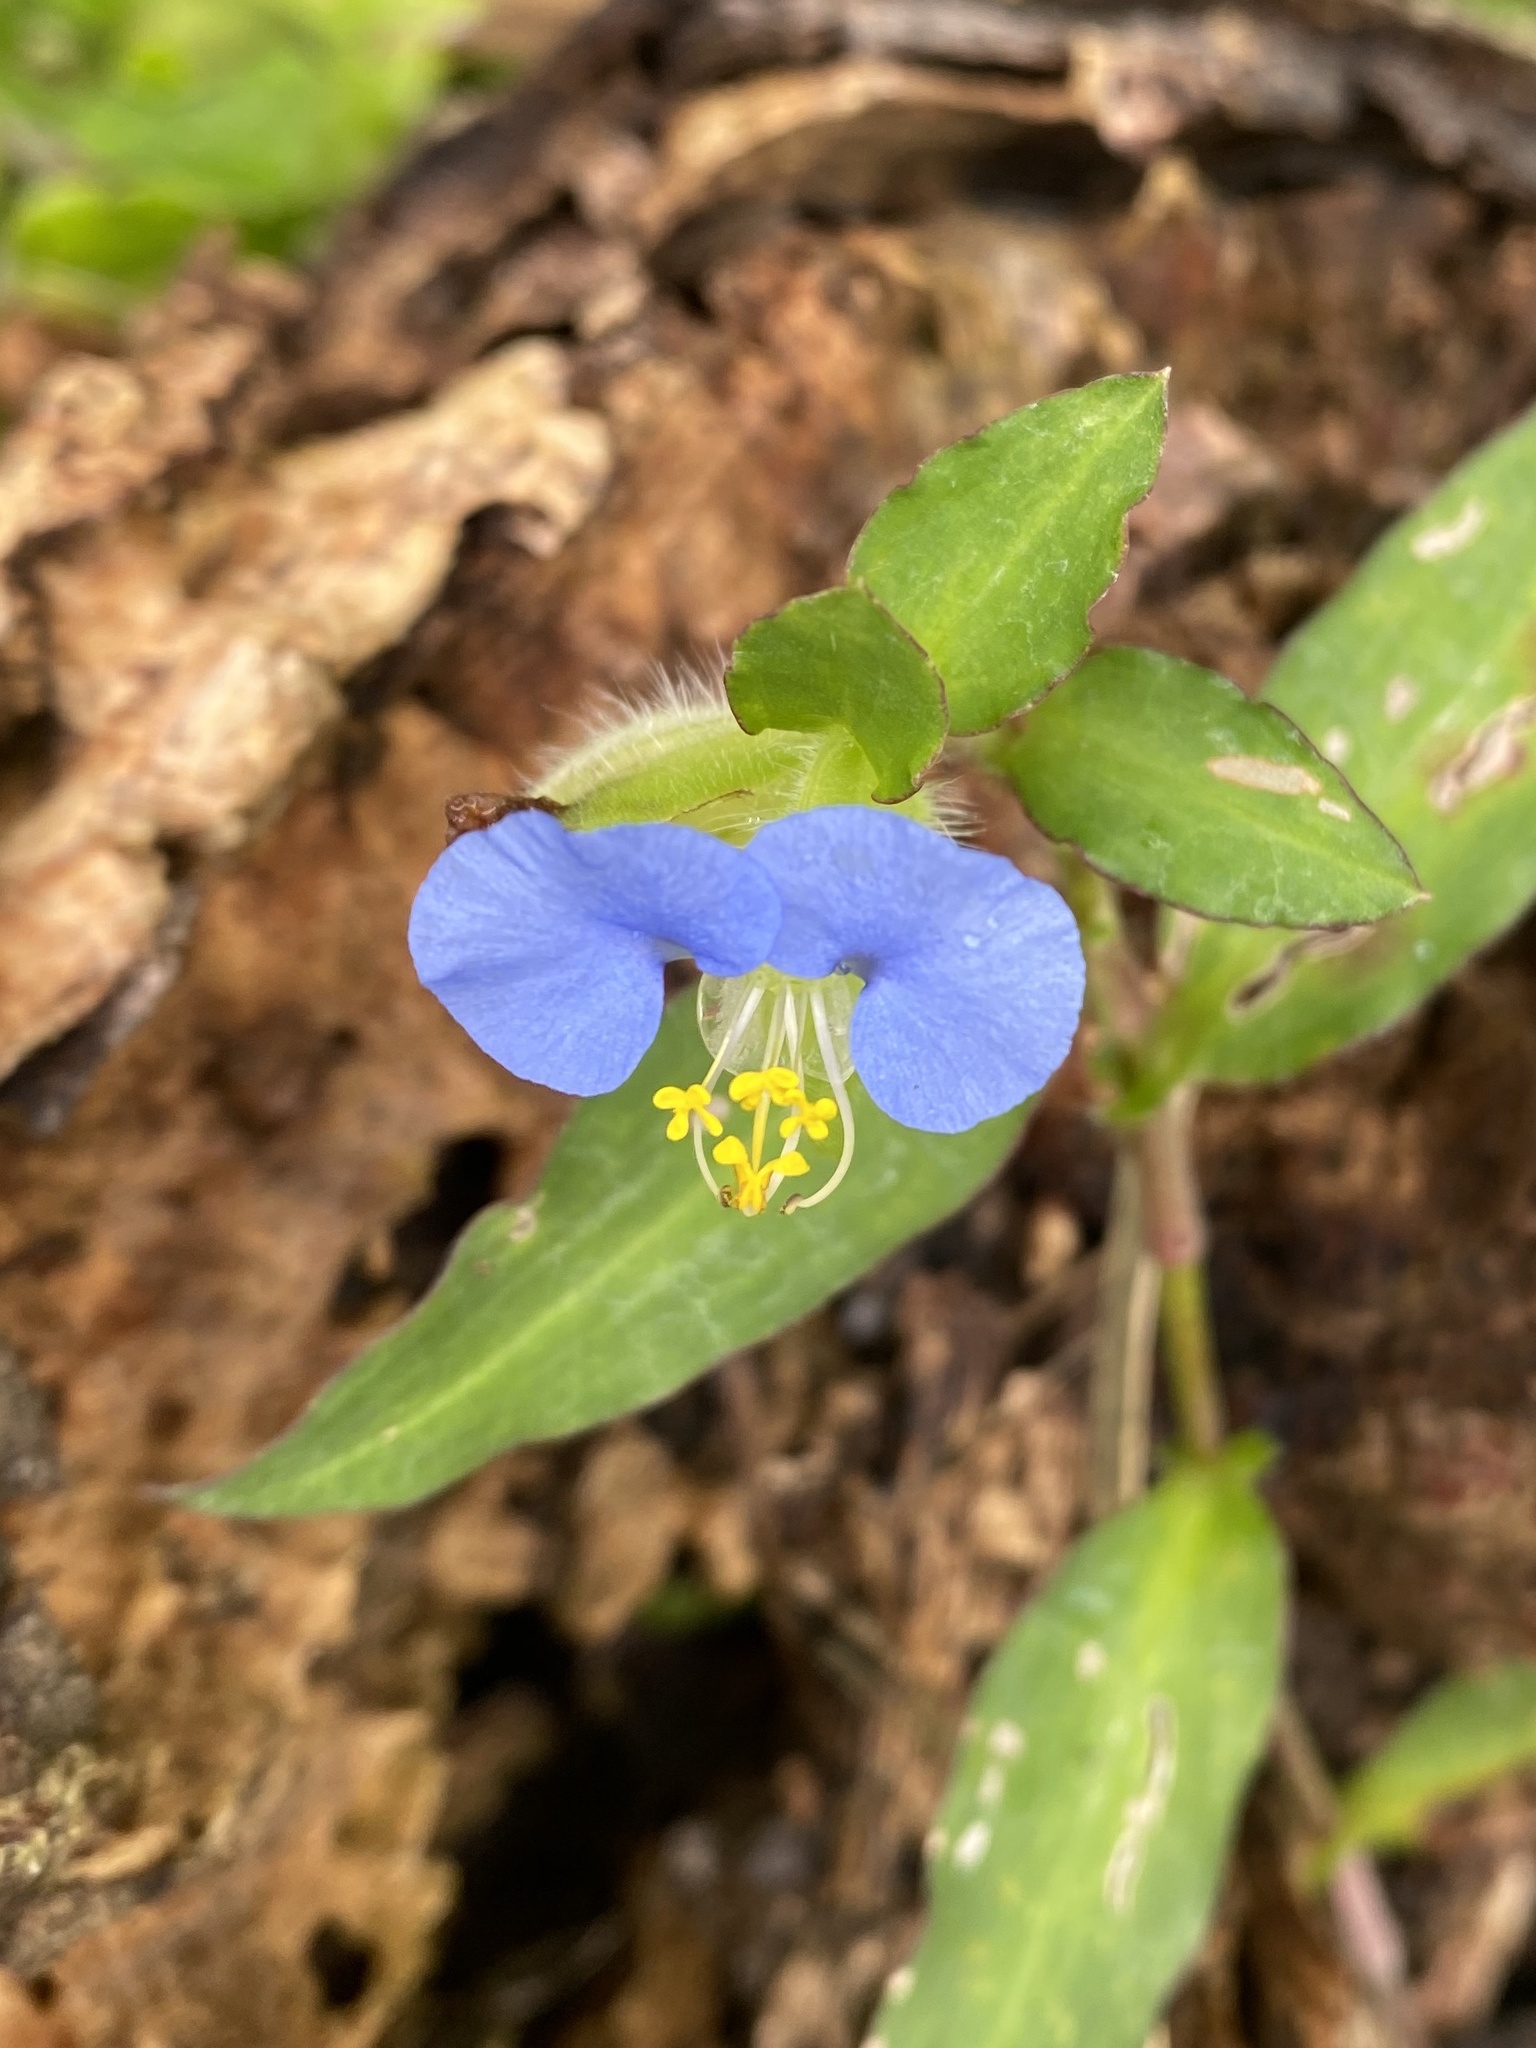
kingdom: Plantae
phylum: Tracheophyta
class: Liliopsida
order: Commelinales
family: Commelinaceae
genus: Commelina
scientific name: Commelina erecta
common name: Blousel blommetjie
